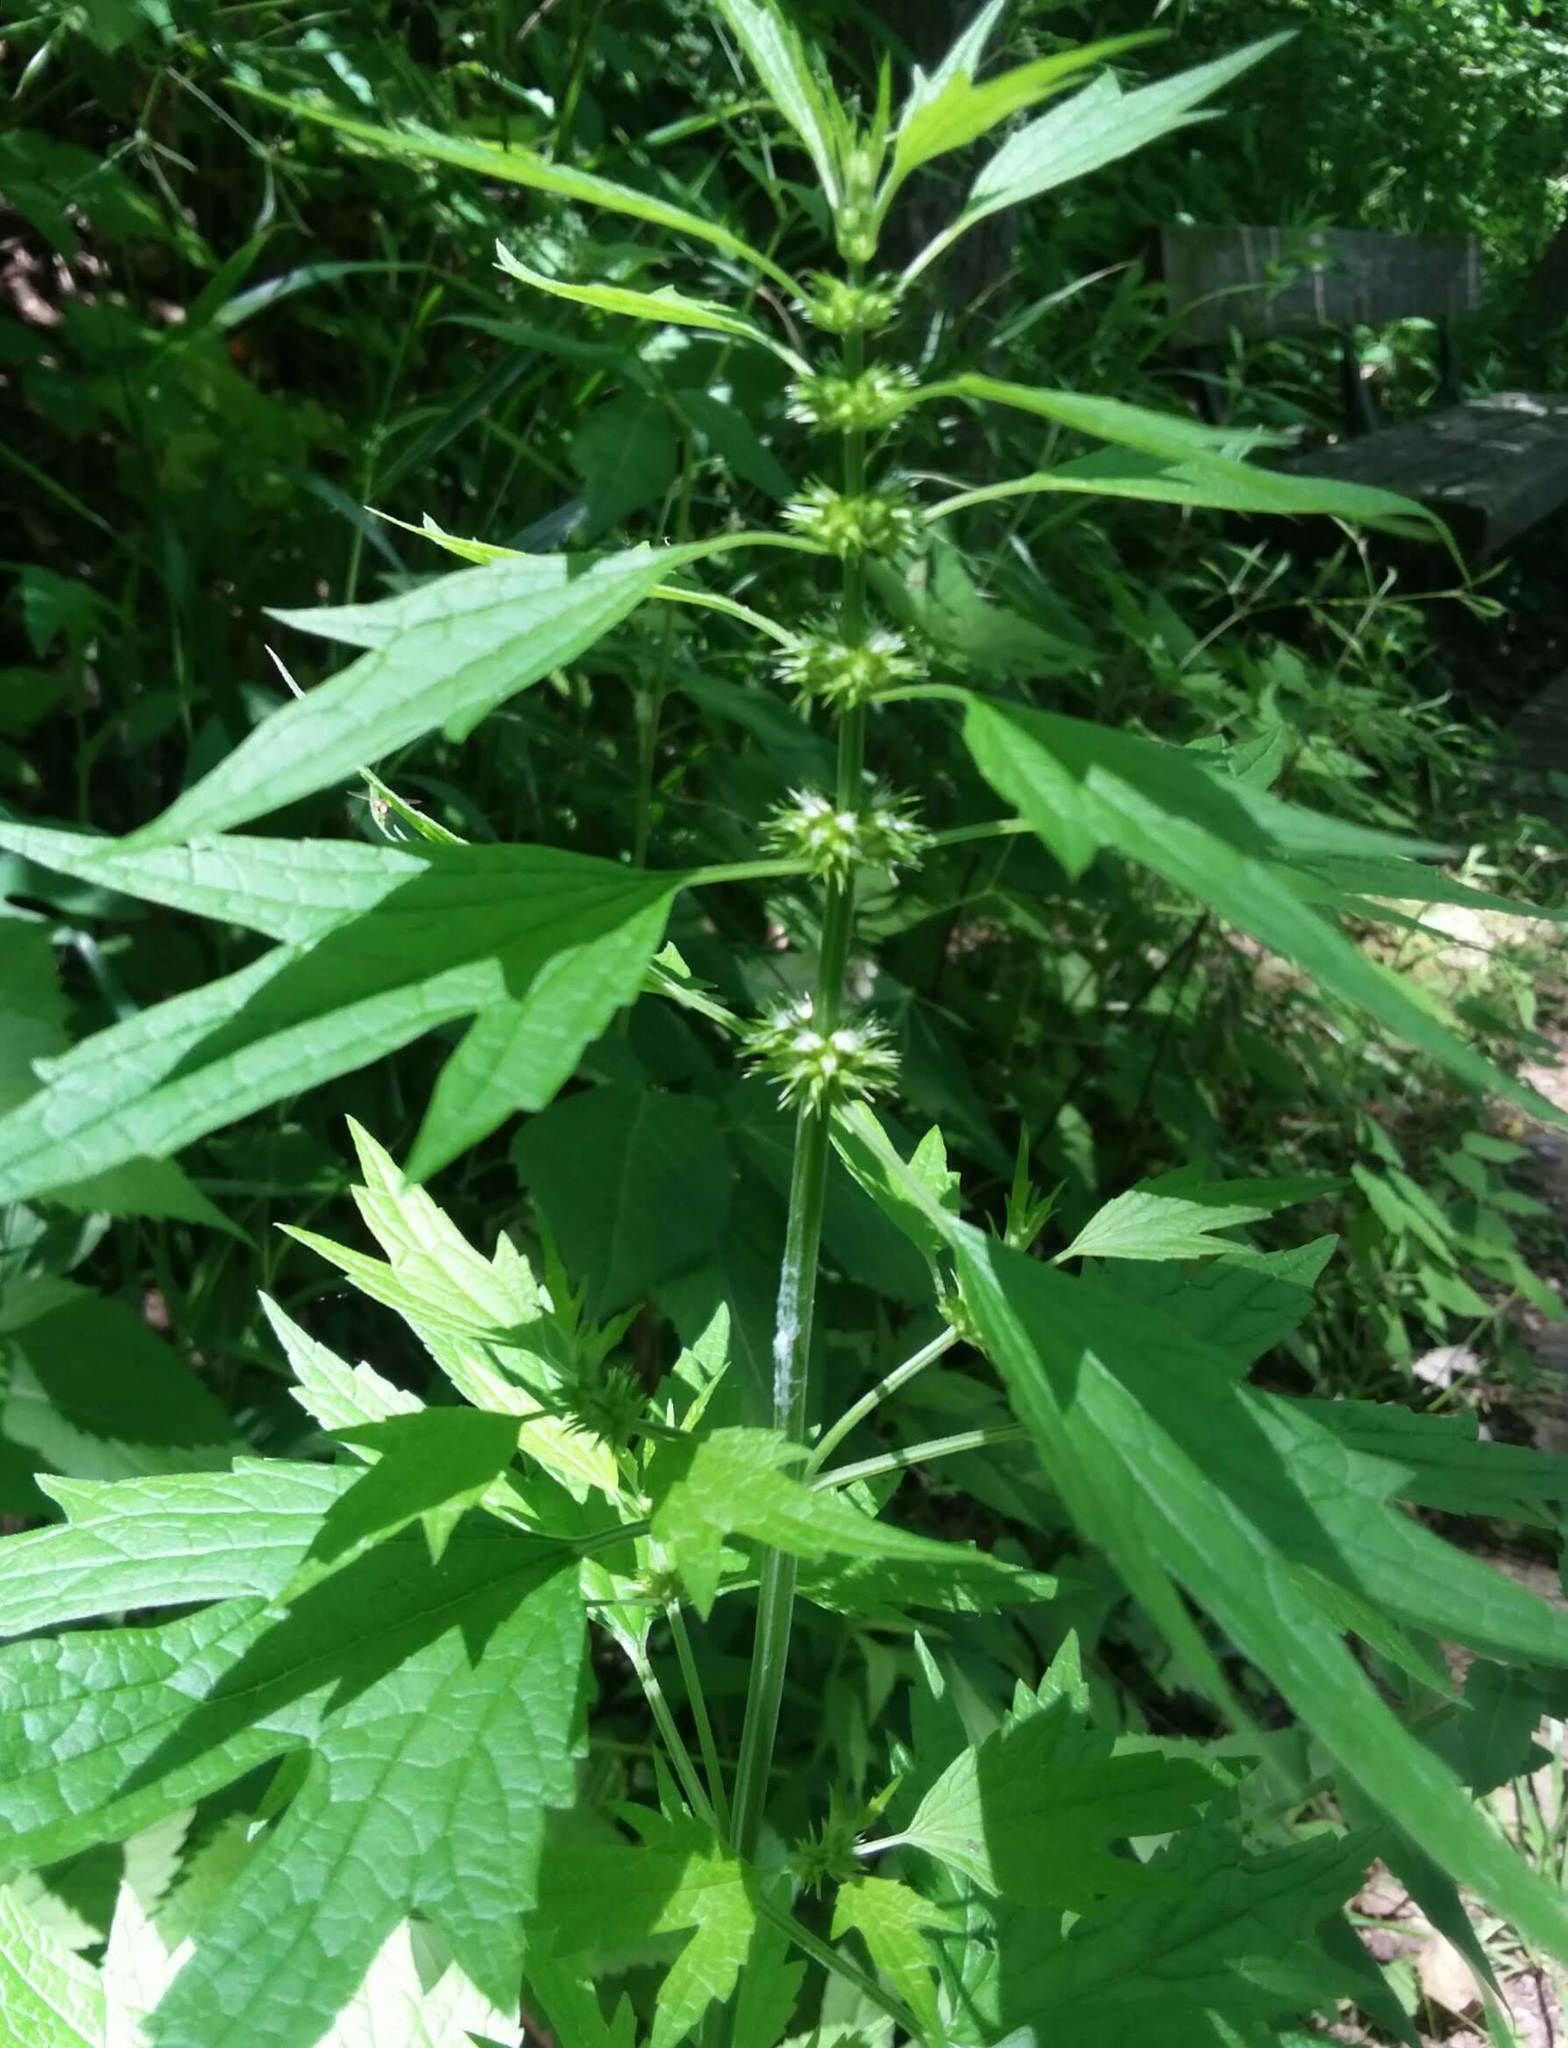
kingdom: Plantae
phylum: Tracheophyta
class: Magnoliopsida
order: Lamiales
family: Lamiaceae
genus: Leonurus
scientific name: Leonurus cardiaca
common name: Motherwort
